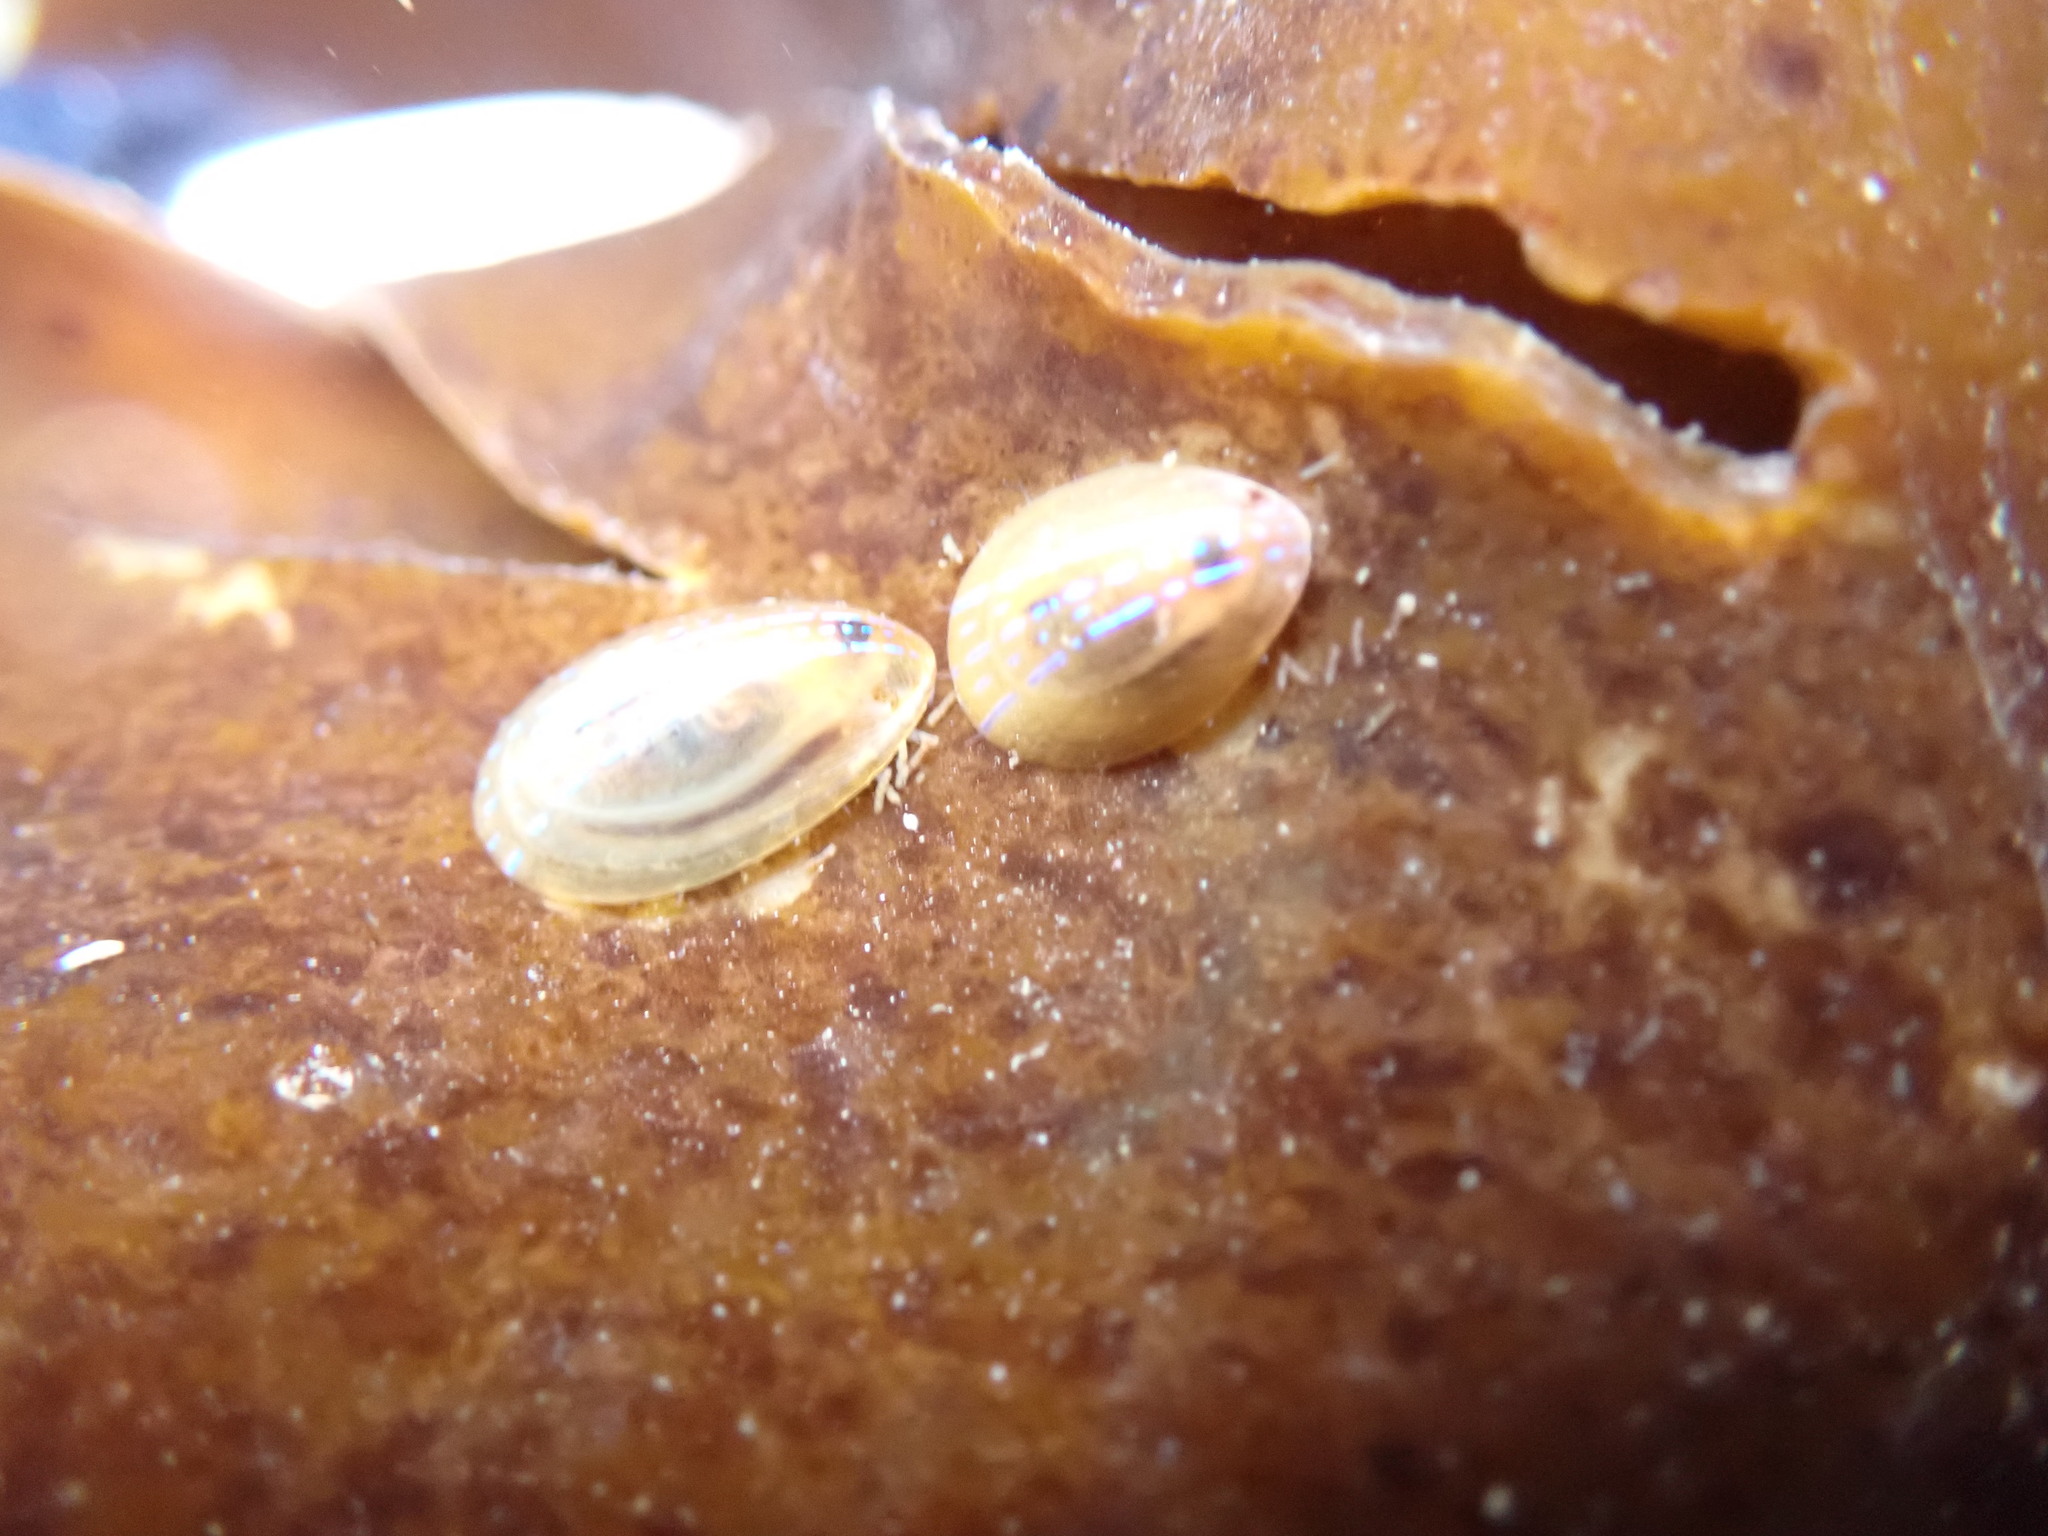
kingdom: Animalia
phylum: Mollusca
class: Gastropoda
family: Patellidae
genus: Patella
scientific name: Patella pellucida
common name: Blue-rayed limpet
